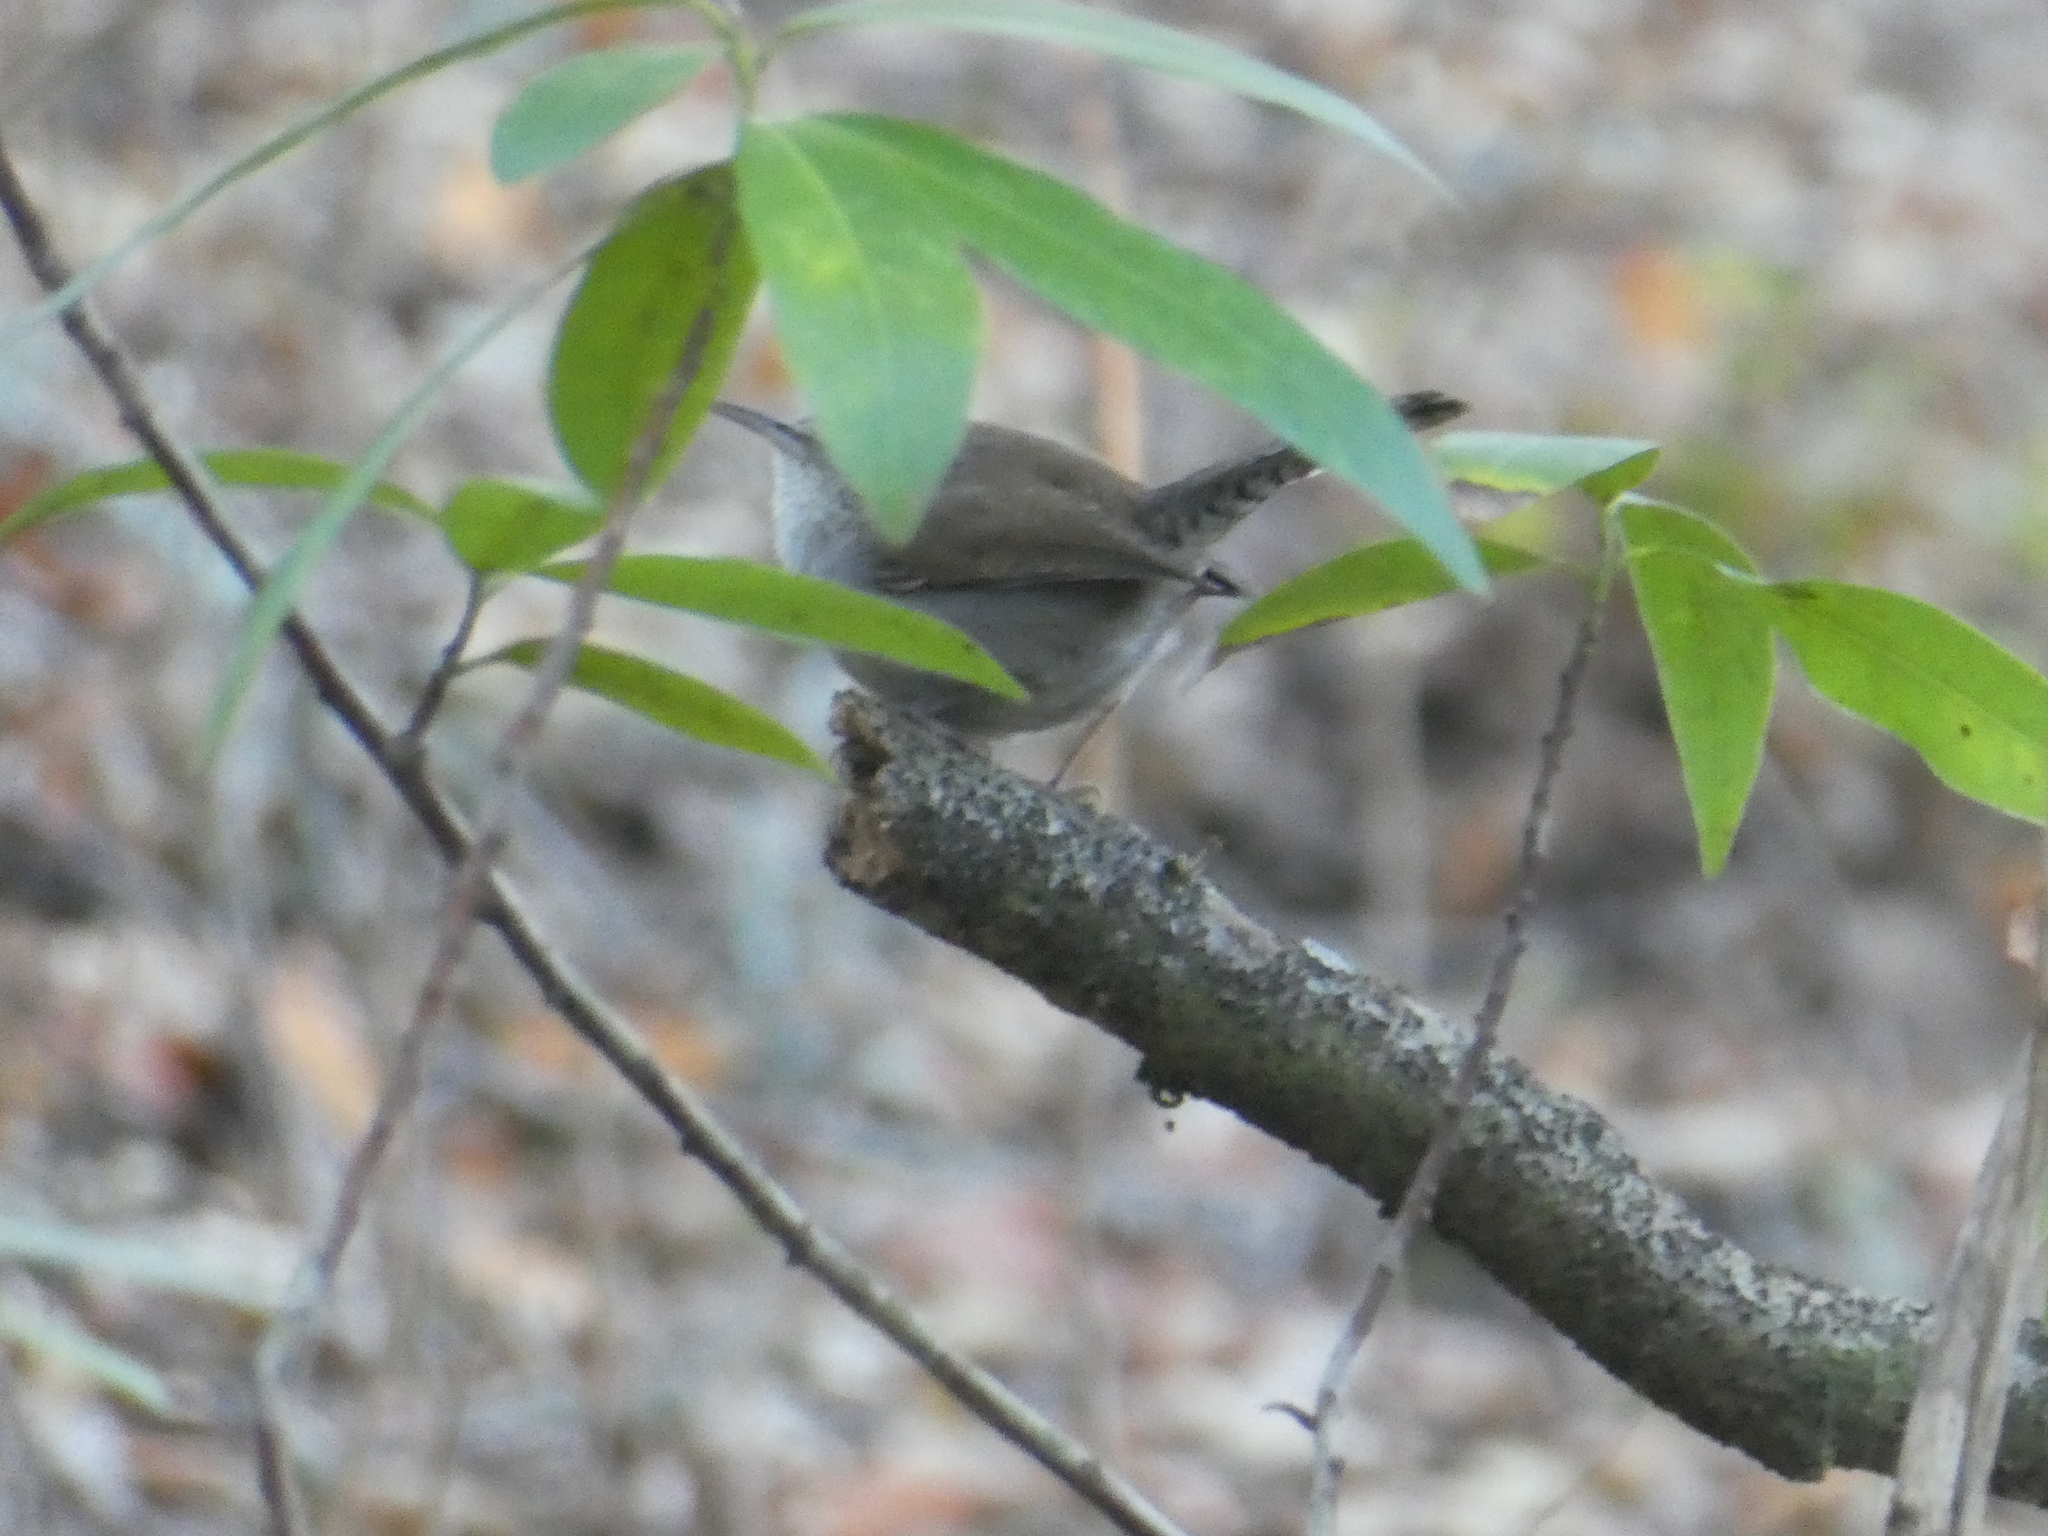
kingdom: Animalia
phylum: Chordata
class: Aves
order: Passeriformes
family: Troglodytidae
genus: Thryomanes
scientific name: Thryomanes bewickii
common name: Bewick's wren
